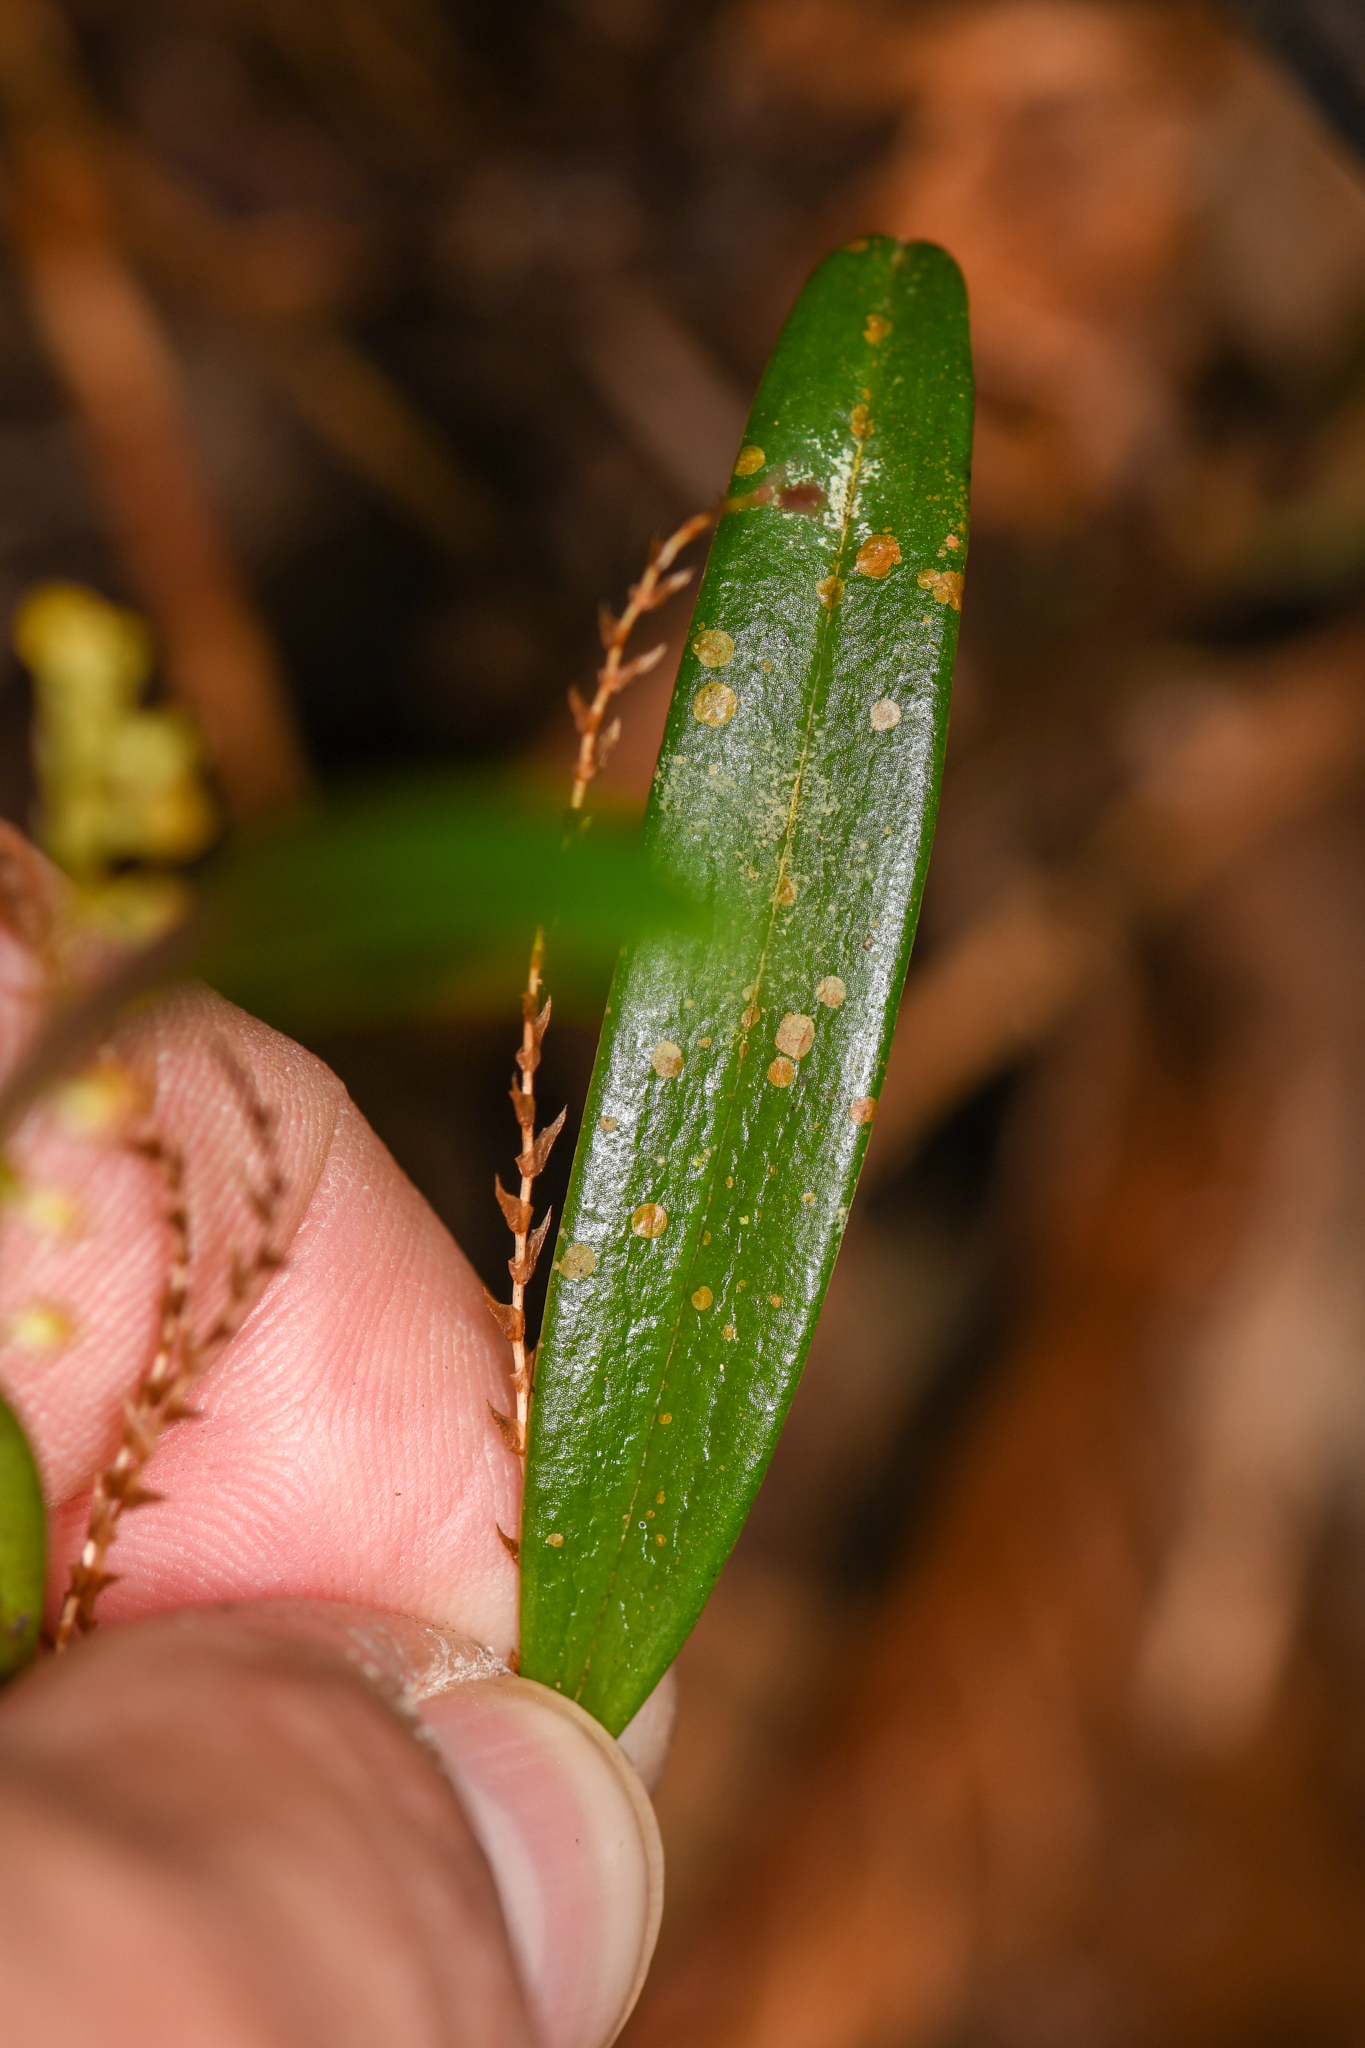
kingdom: Plantae
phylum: Tracheophyta
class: Liliopsida
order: Asparagales
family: Orchidaceae
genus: Stelis
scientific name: Stelis
